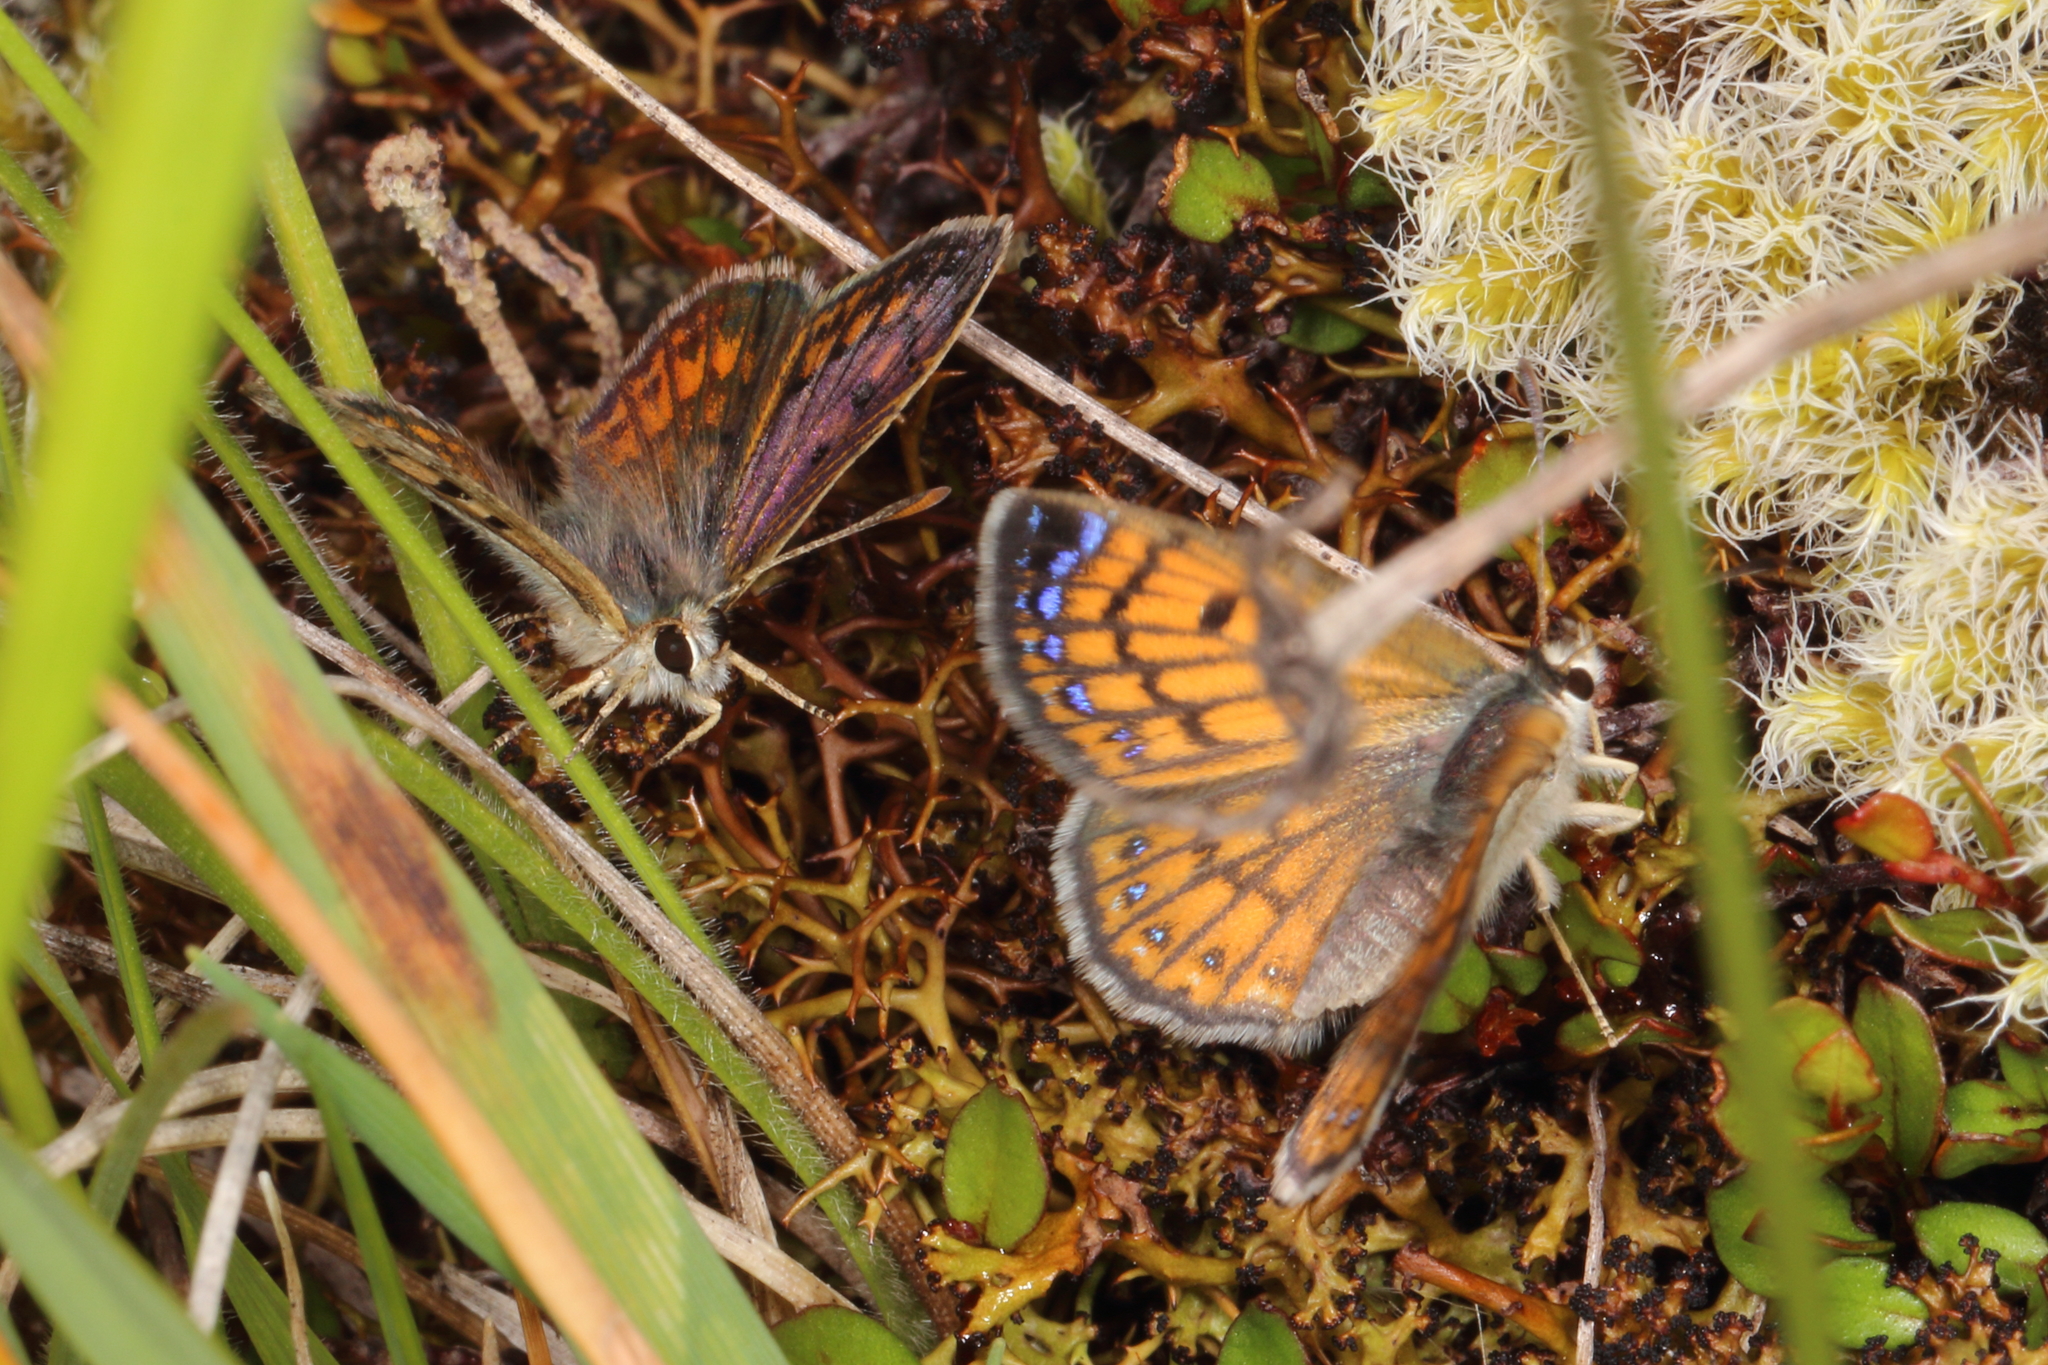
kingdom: Animalia
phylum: Arthropoda
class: Insecta
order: Lepidoptera
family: Lycaenidae
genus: Lycaena
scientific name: Lycaena boldenarum
